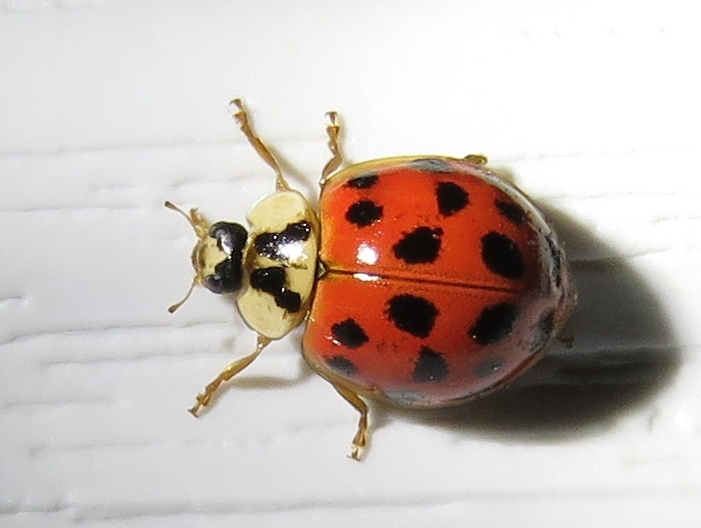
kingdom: Animalia
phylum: Arthropoda
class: Insecta
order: Coleoptera
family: Coccinellidae
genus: Harmonia
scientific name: Harmonia axyridis
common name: Harlequin ladybird
